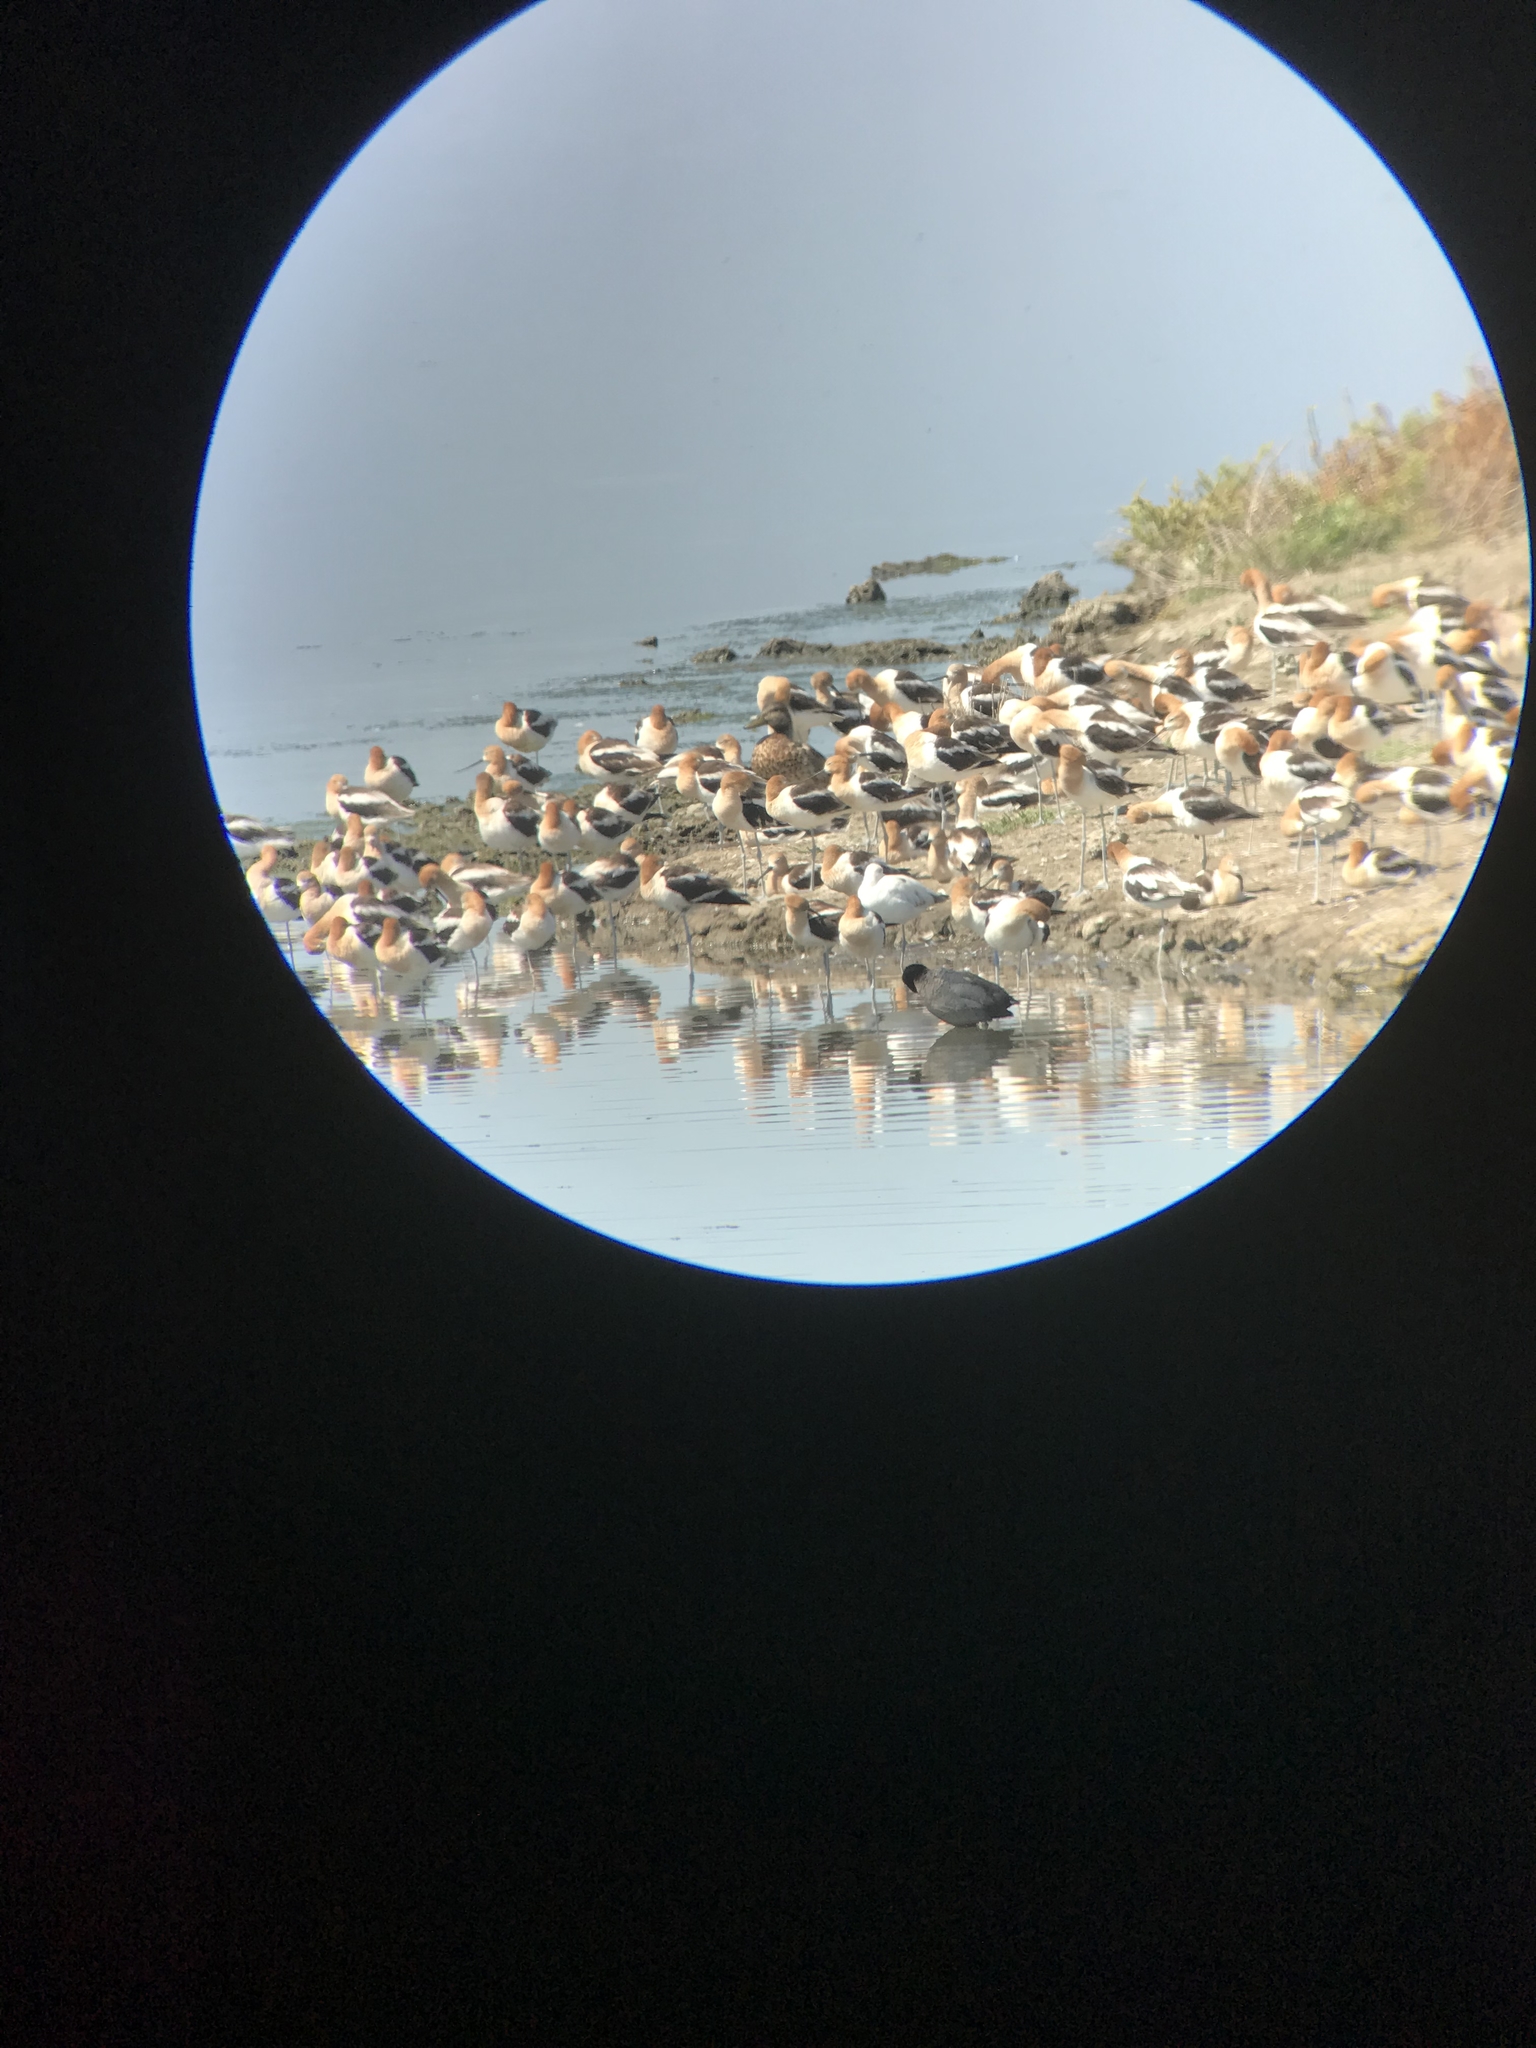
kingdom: Animalia
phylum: Chordata
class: Aves
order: Charadriiformes
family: Recurvirostridae
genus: Recurvirostra
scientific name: Recurvirostra americana
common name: American avocet
